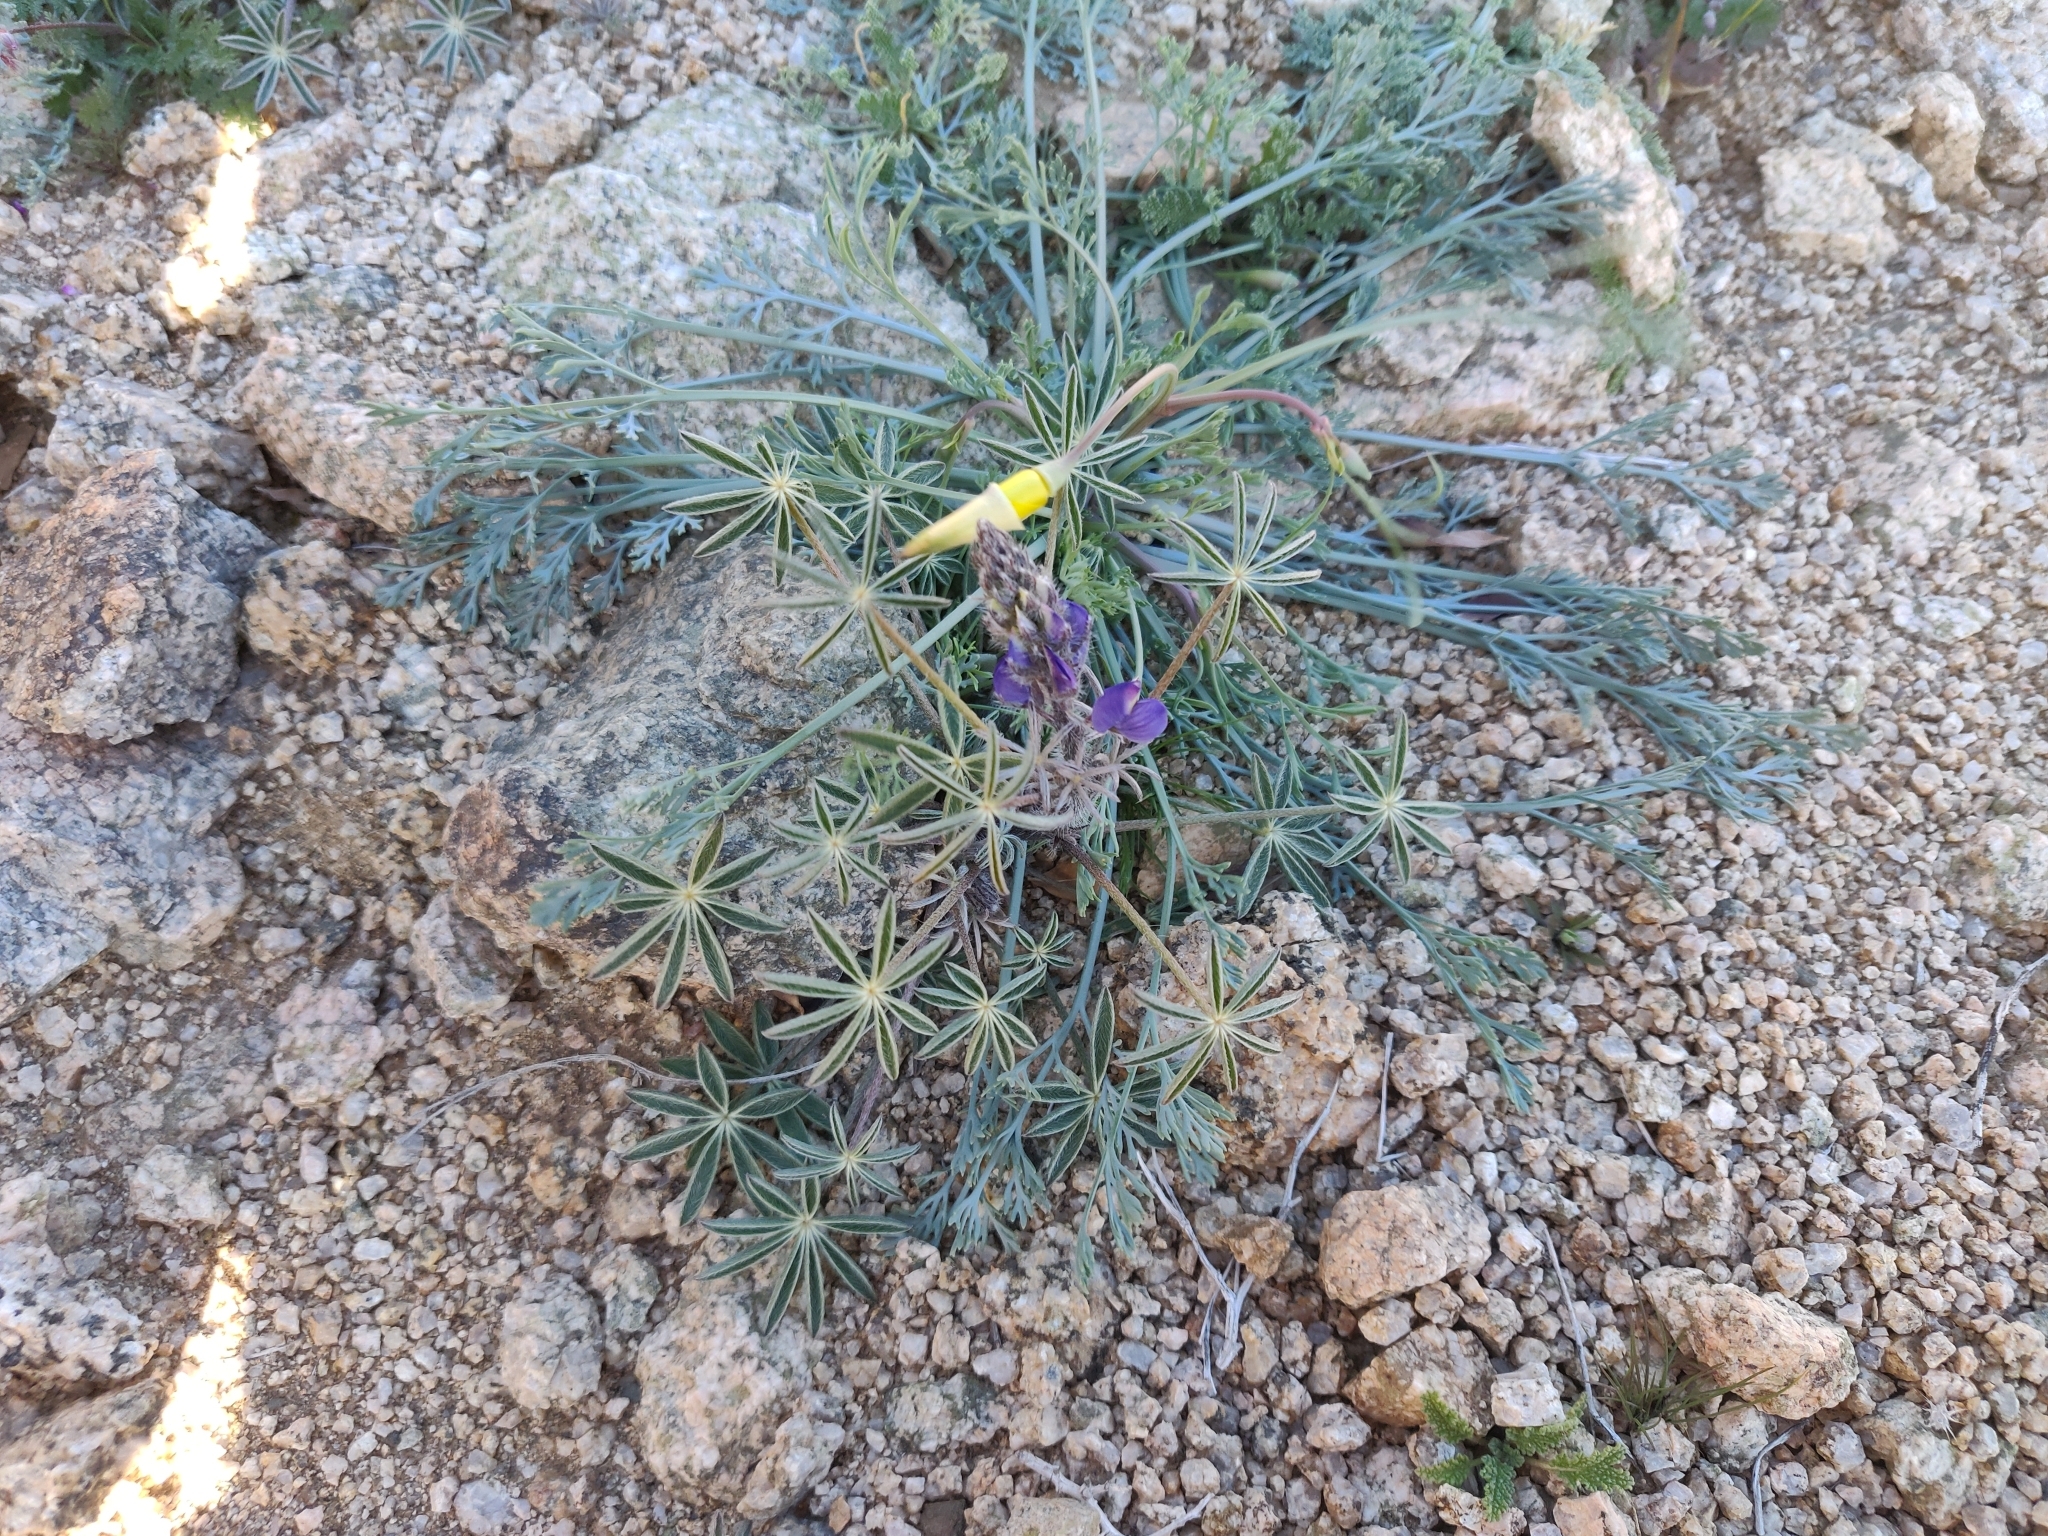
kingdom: Plantae
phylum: Tracheophyta
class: Magnoliopsida
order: Ranunculales
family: Papaveraceae
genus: Eschscholzia
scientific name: Eschscholzia papastillii
